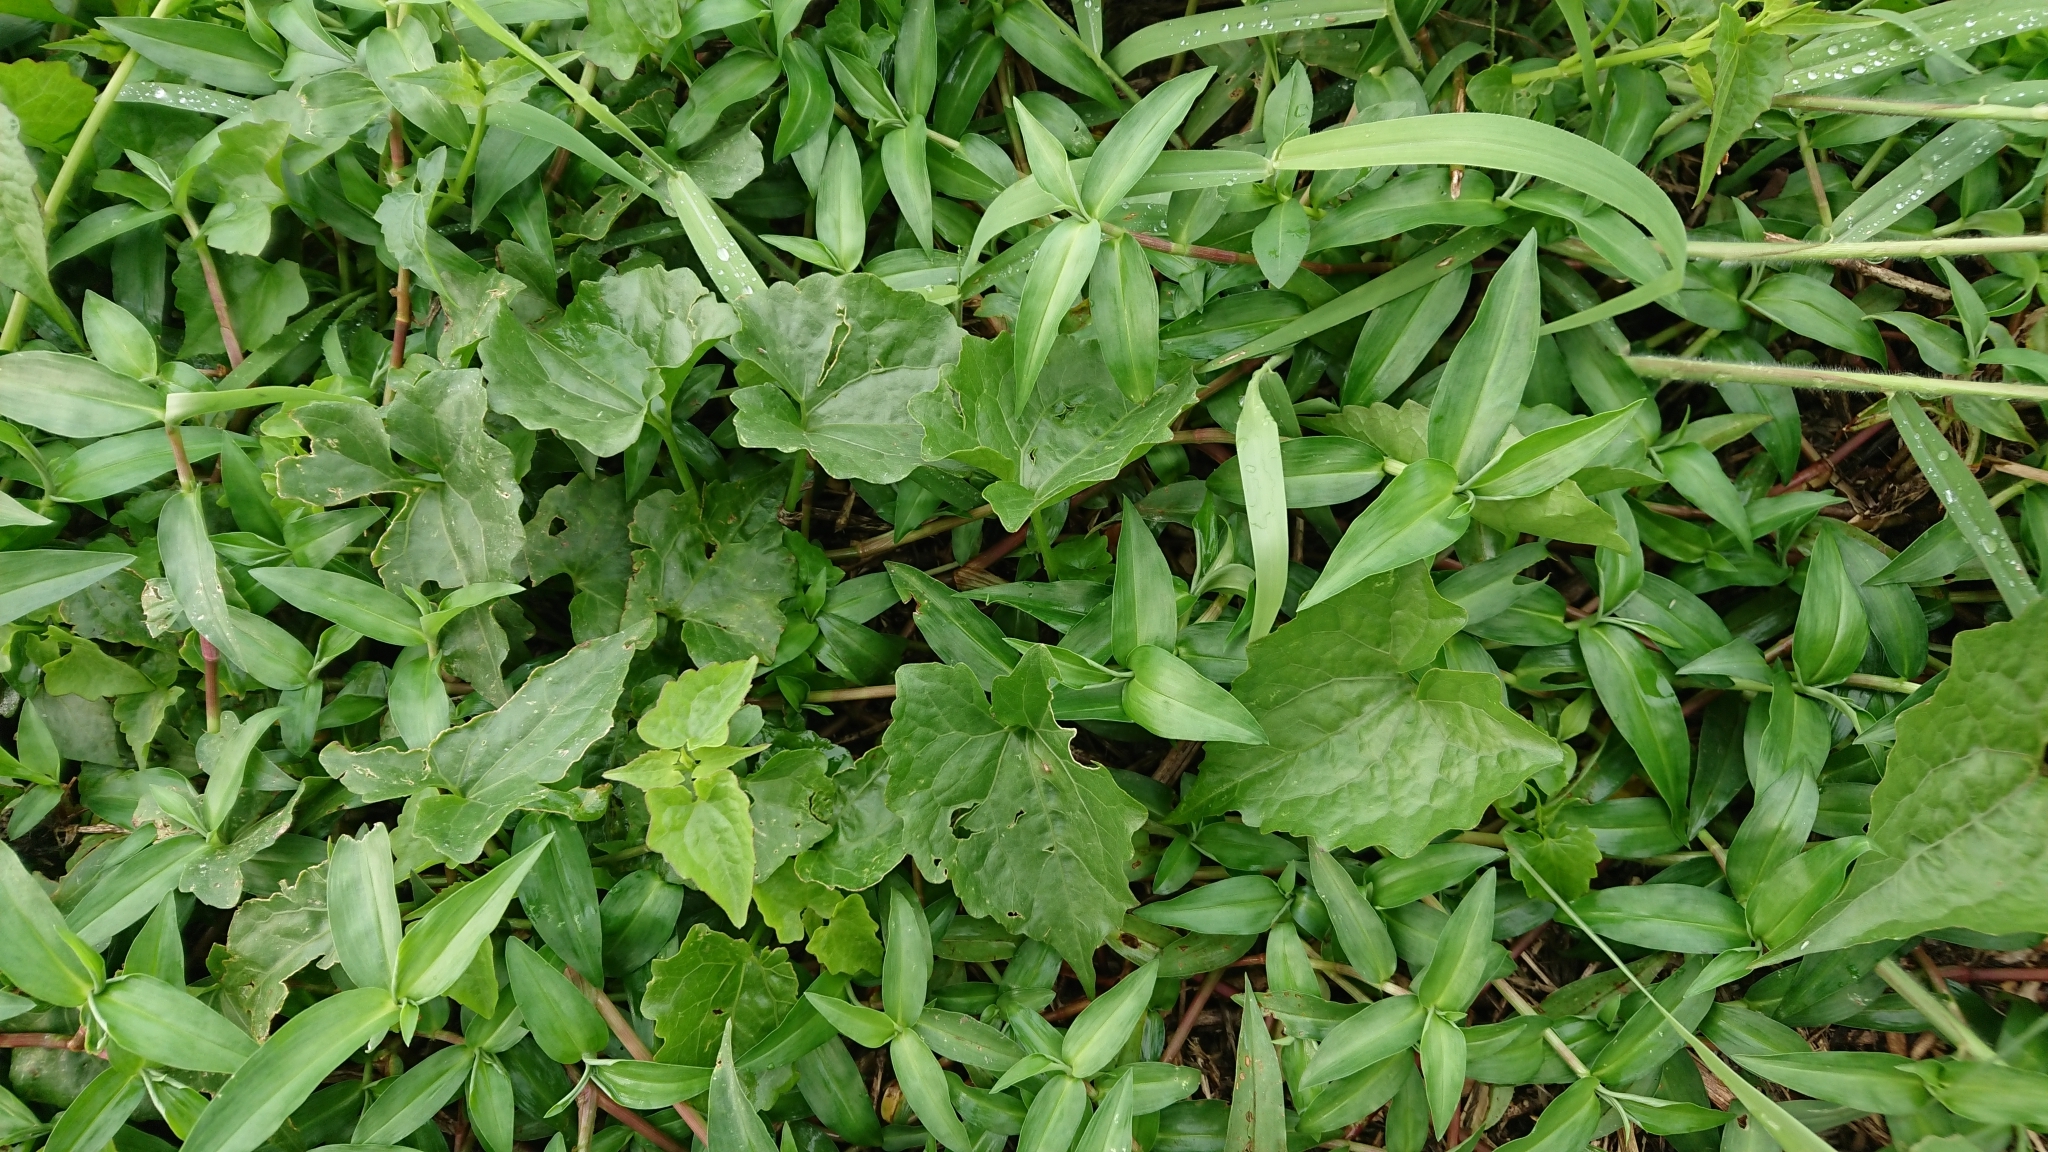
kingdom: Plantae
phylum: Tracheophyta
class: Magnoliopsida
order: Asterales
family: Asteraceae
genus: Mikania
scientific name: Mikania micrantha
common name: Mile-a-minute
